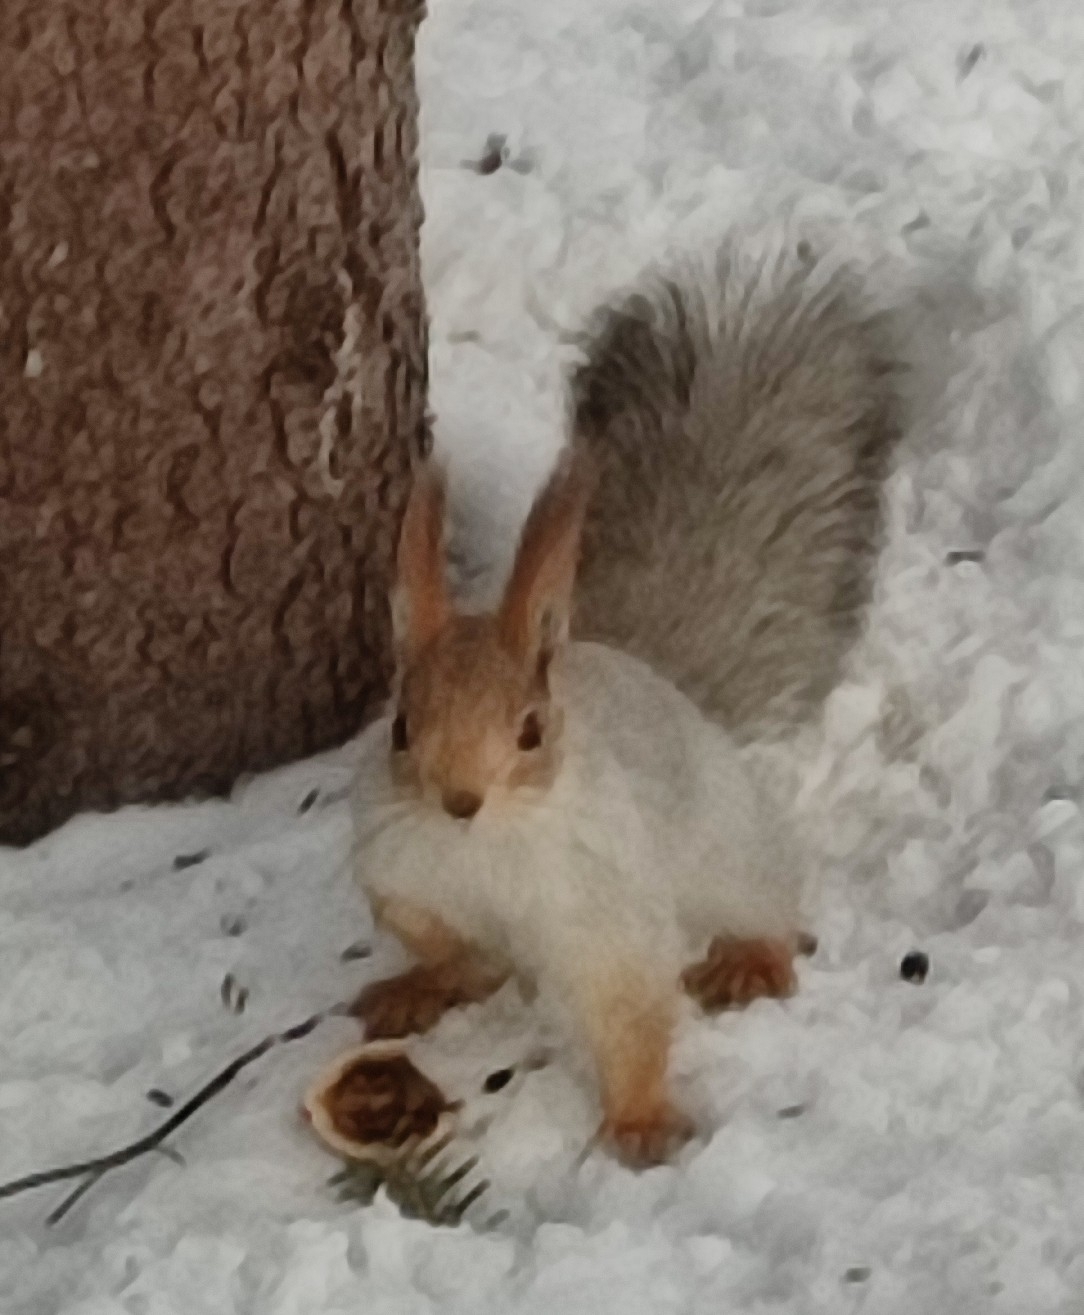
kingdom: Animalia
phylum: Chordata
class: Mammalia
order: Rodentia
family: Sciuridae
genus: Sciurus
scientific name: Sciurus vulgaris
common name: Eurasian red squirrel
